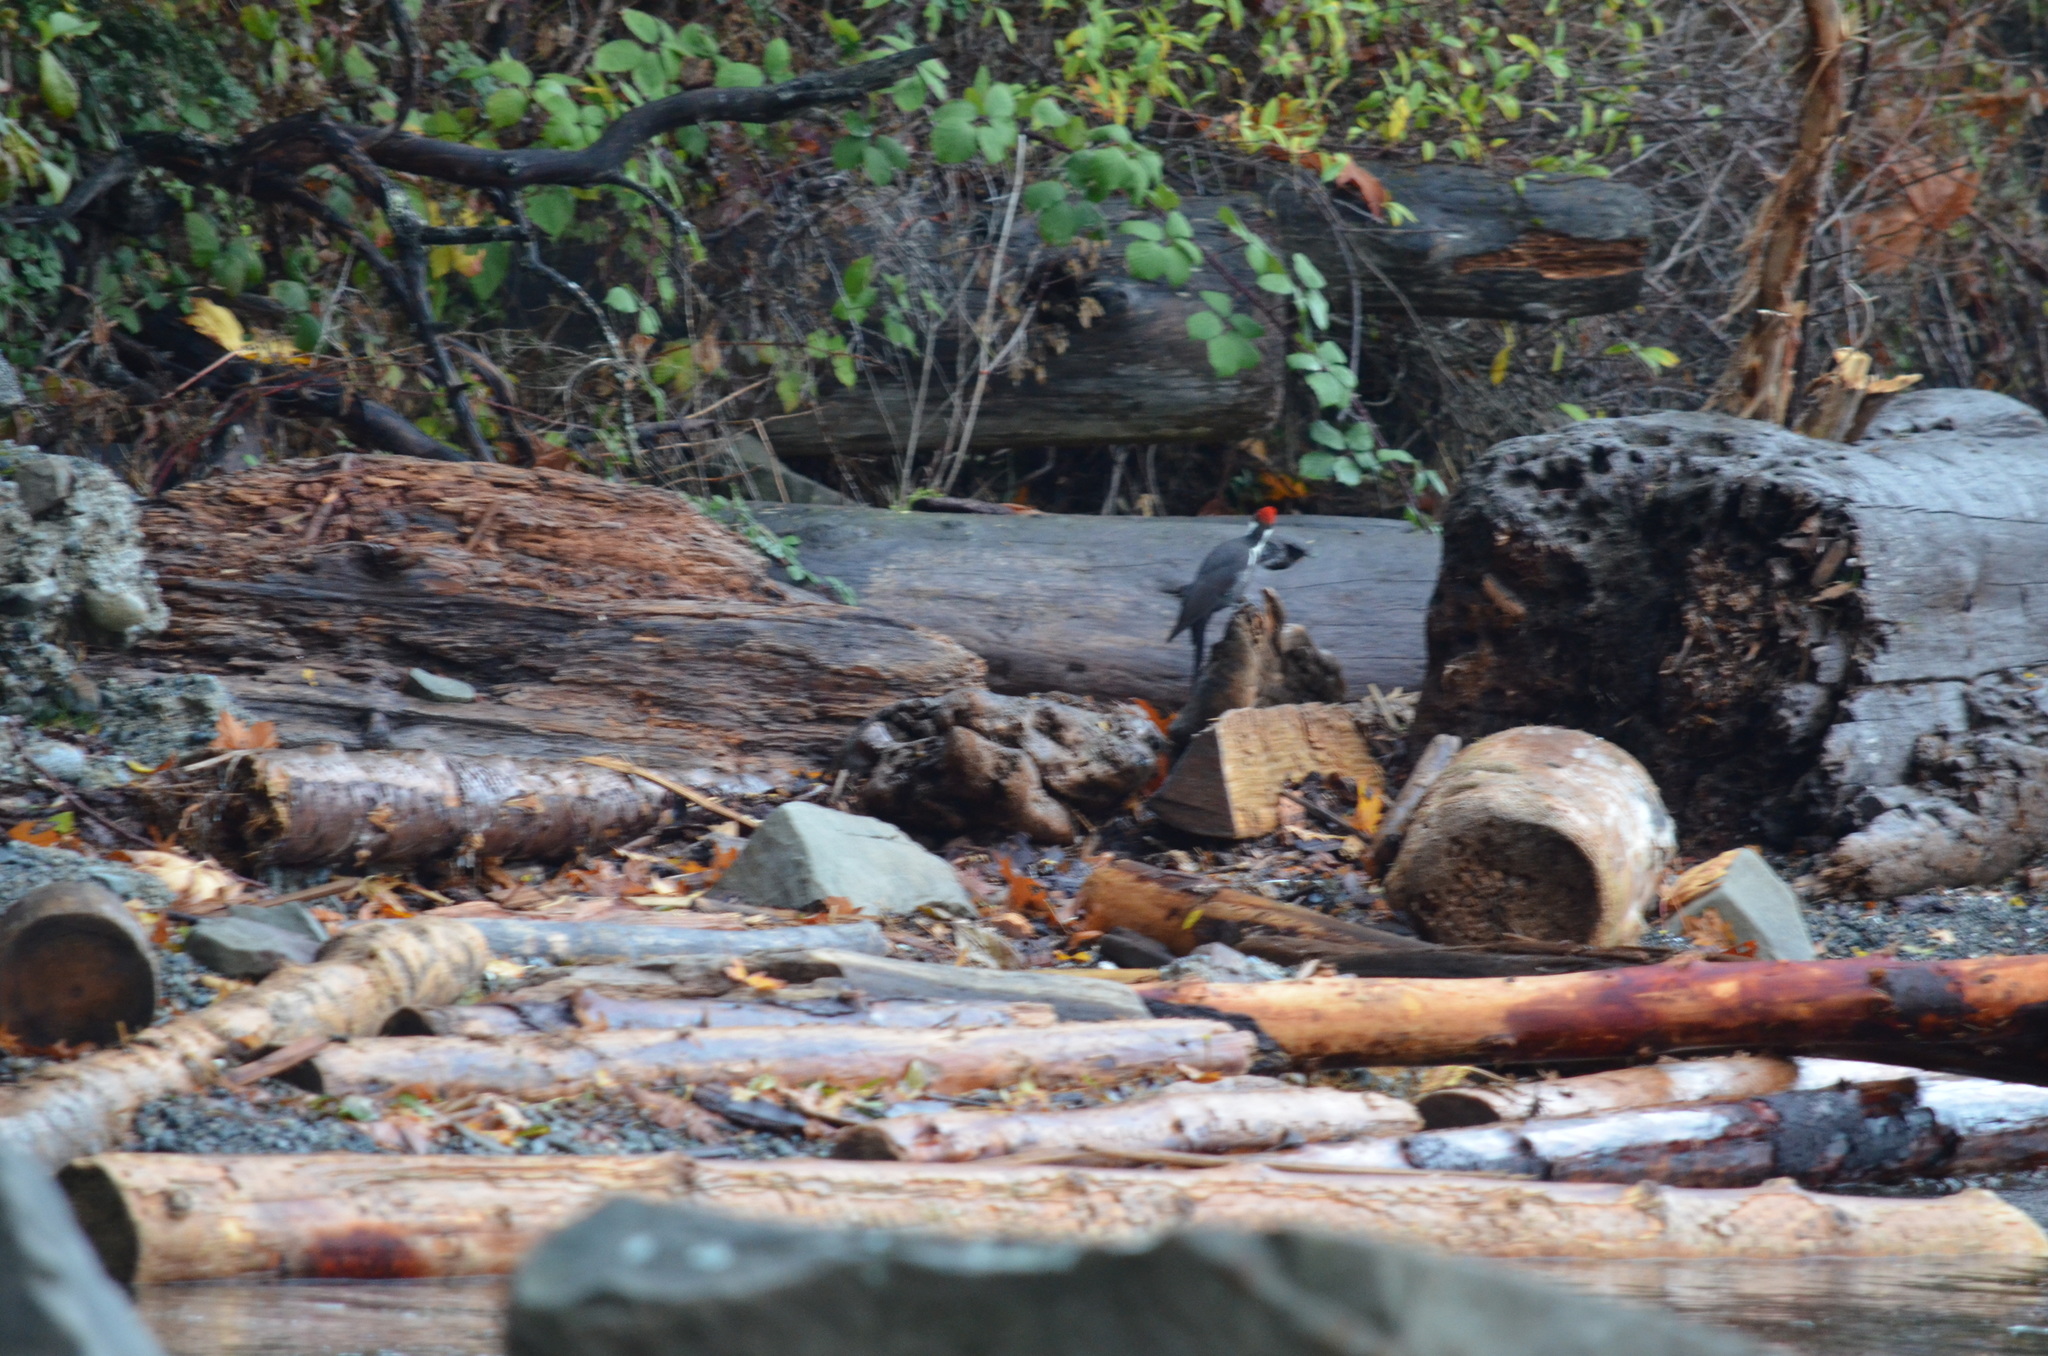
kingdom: Animalia
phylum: Chordata
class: Aves
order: Piciformes
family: Picidae
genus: Dryocopus
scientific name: Dryocopus pileatus
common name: Pileated woodpecker
